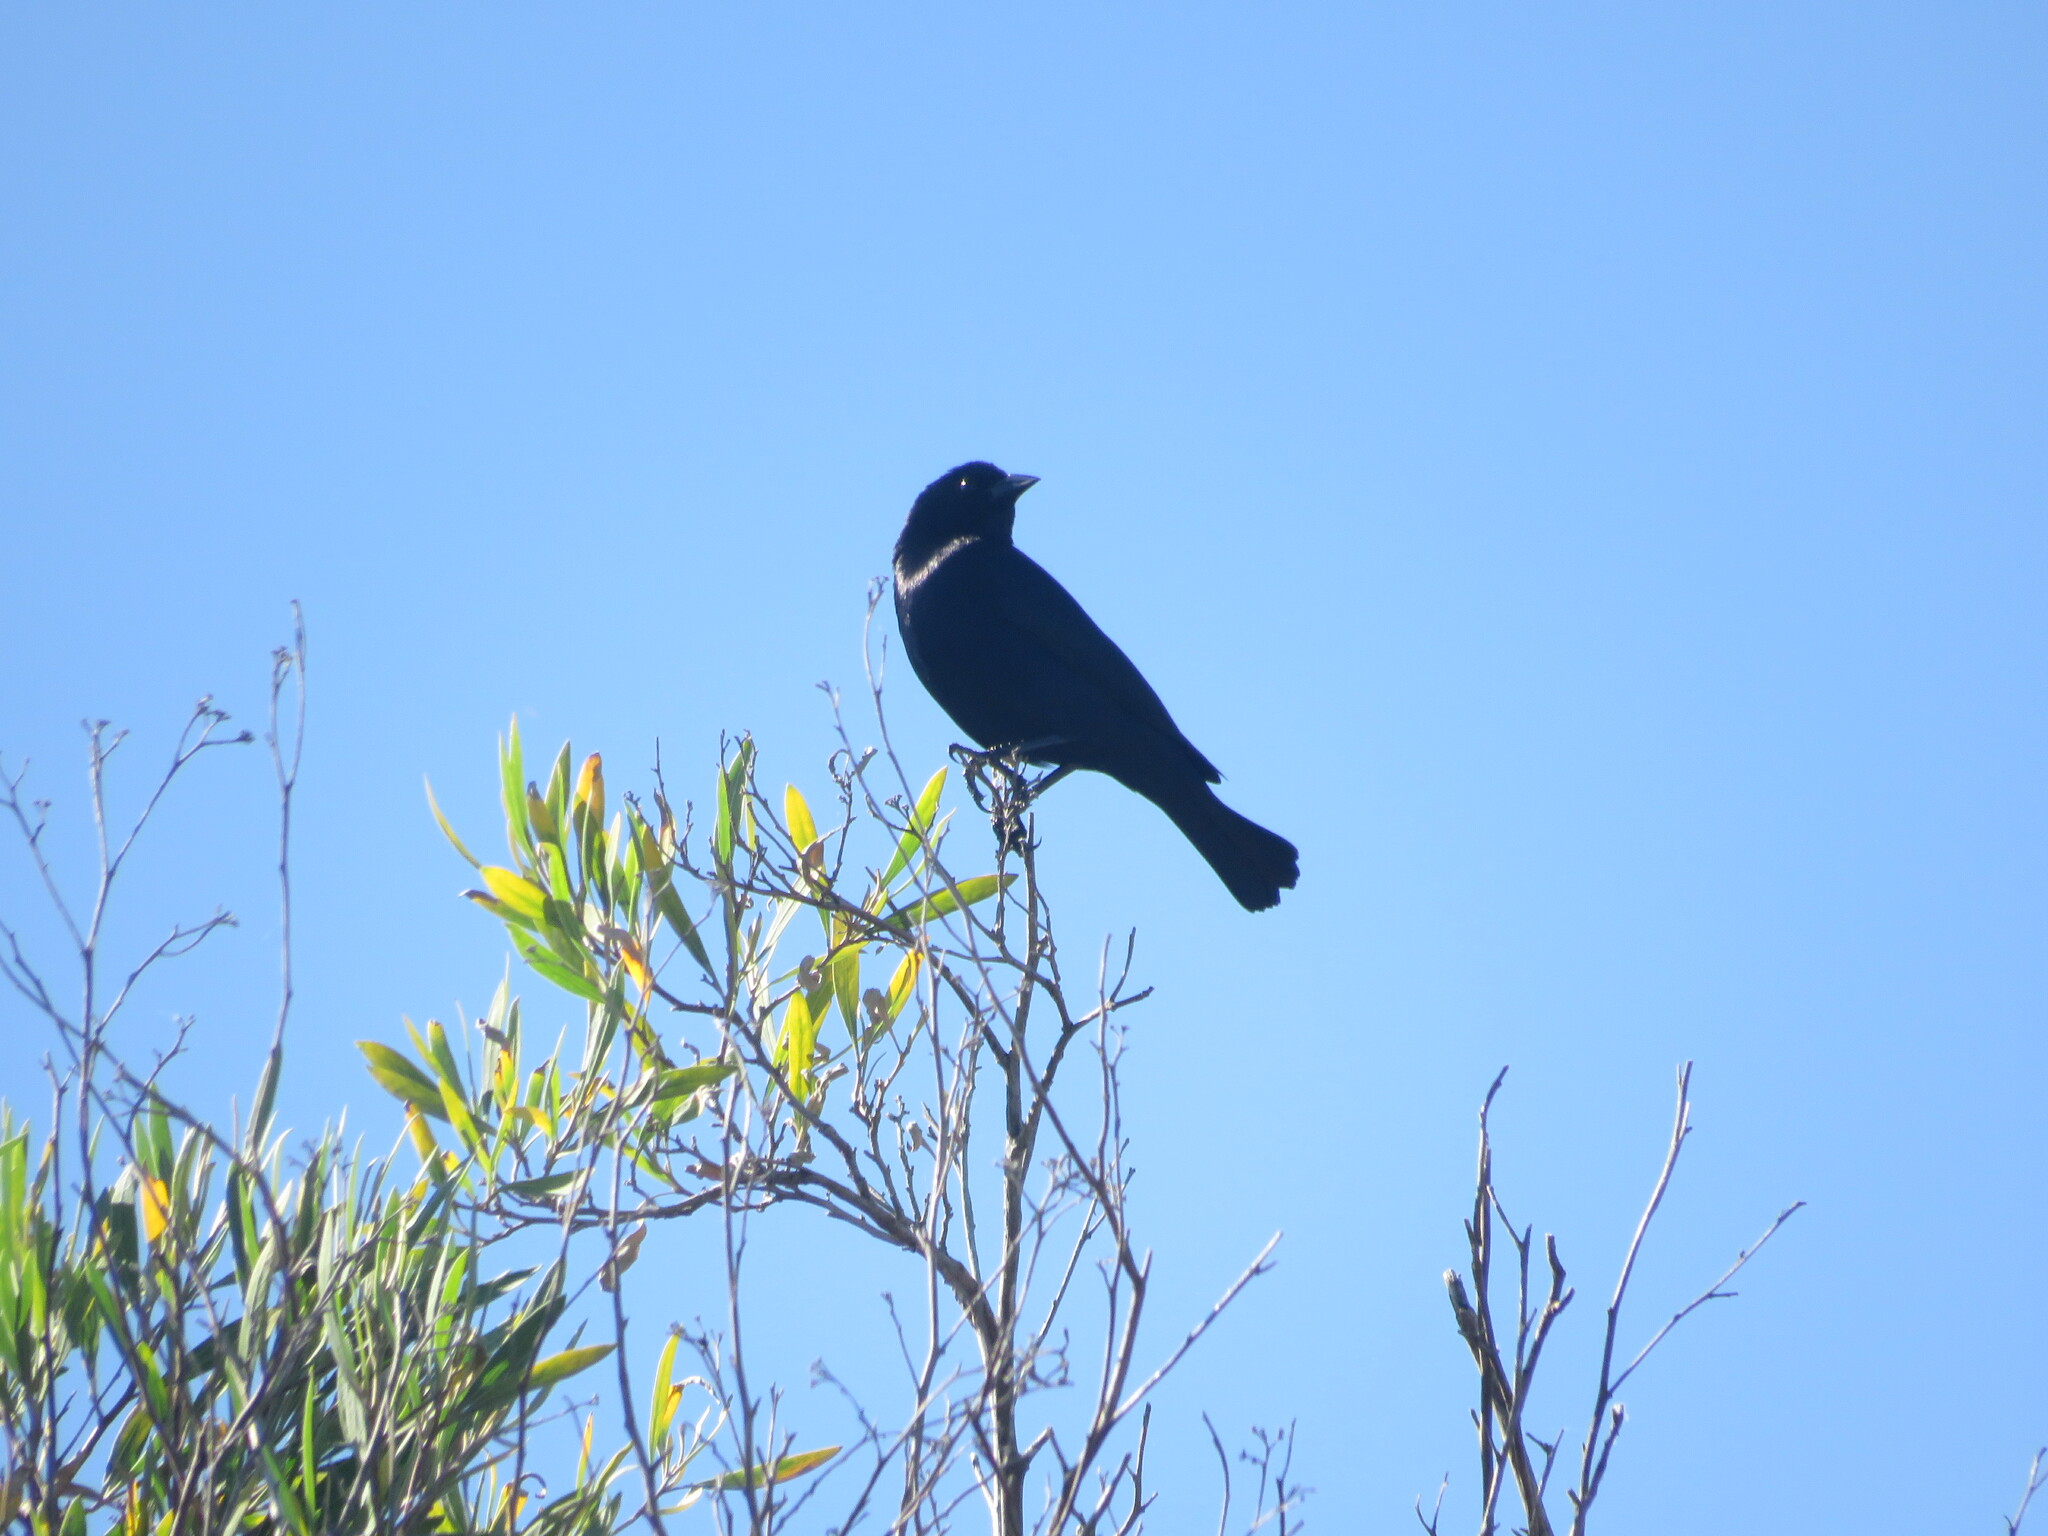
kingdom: Animalia
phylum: Chordata
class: Aves
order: Passeriformes
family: Icteridae
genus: Molothrus
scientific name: Molothrus bonariensis
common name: Shiny cowbird
